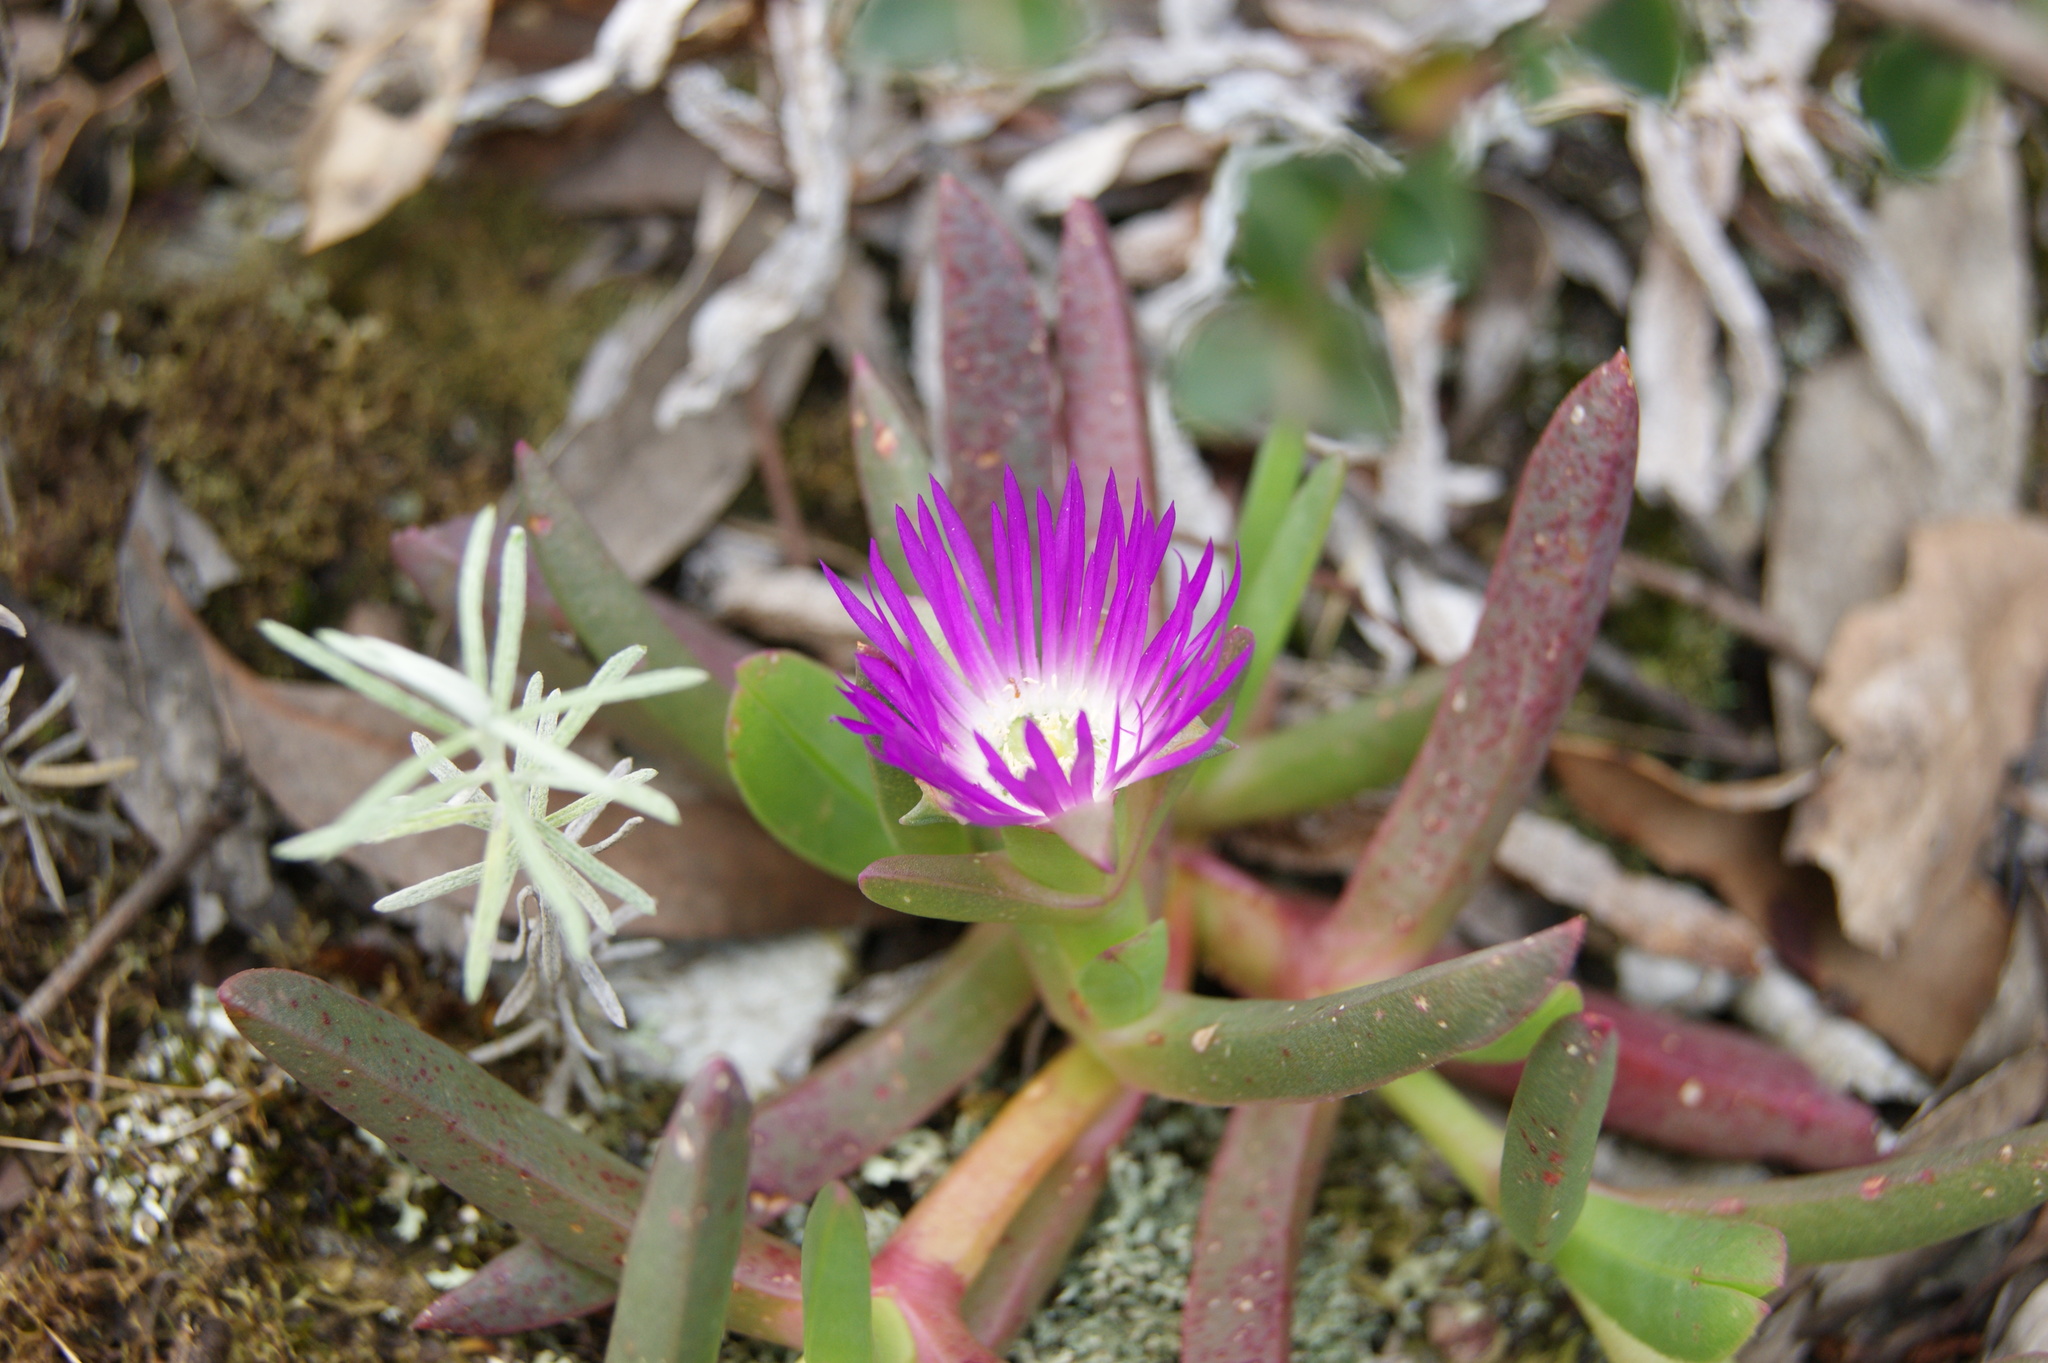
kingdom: Plantae
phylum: Tracheophyta
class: Magnoliopsida
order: Caryophyllales
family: Aizoaceae
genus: Carpobrotus
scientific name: Carpobrotus modestus
